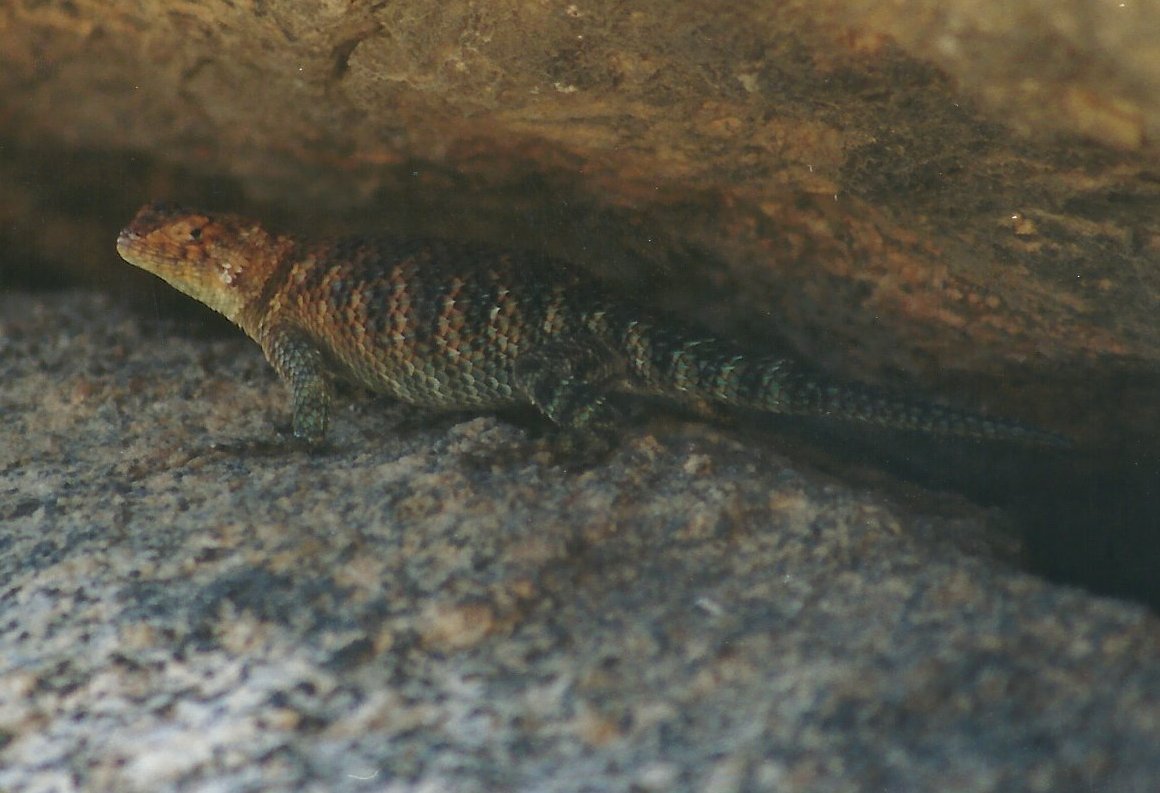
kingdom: Animalia
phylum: Chordata
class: Squamata
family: Phrynosomatidae
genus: Sceloporus
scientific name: Sceloporus orcutti
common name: Granite spiny lizard
